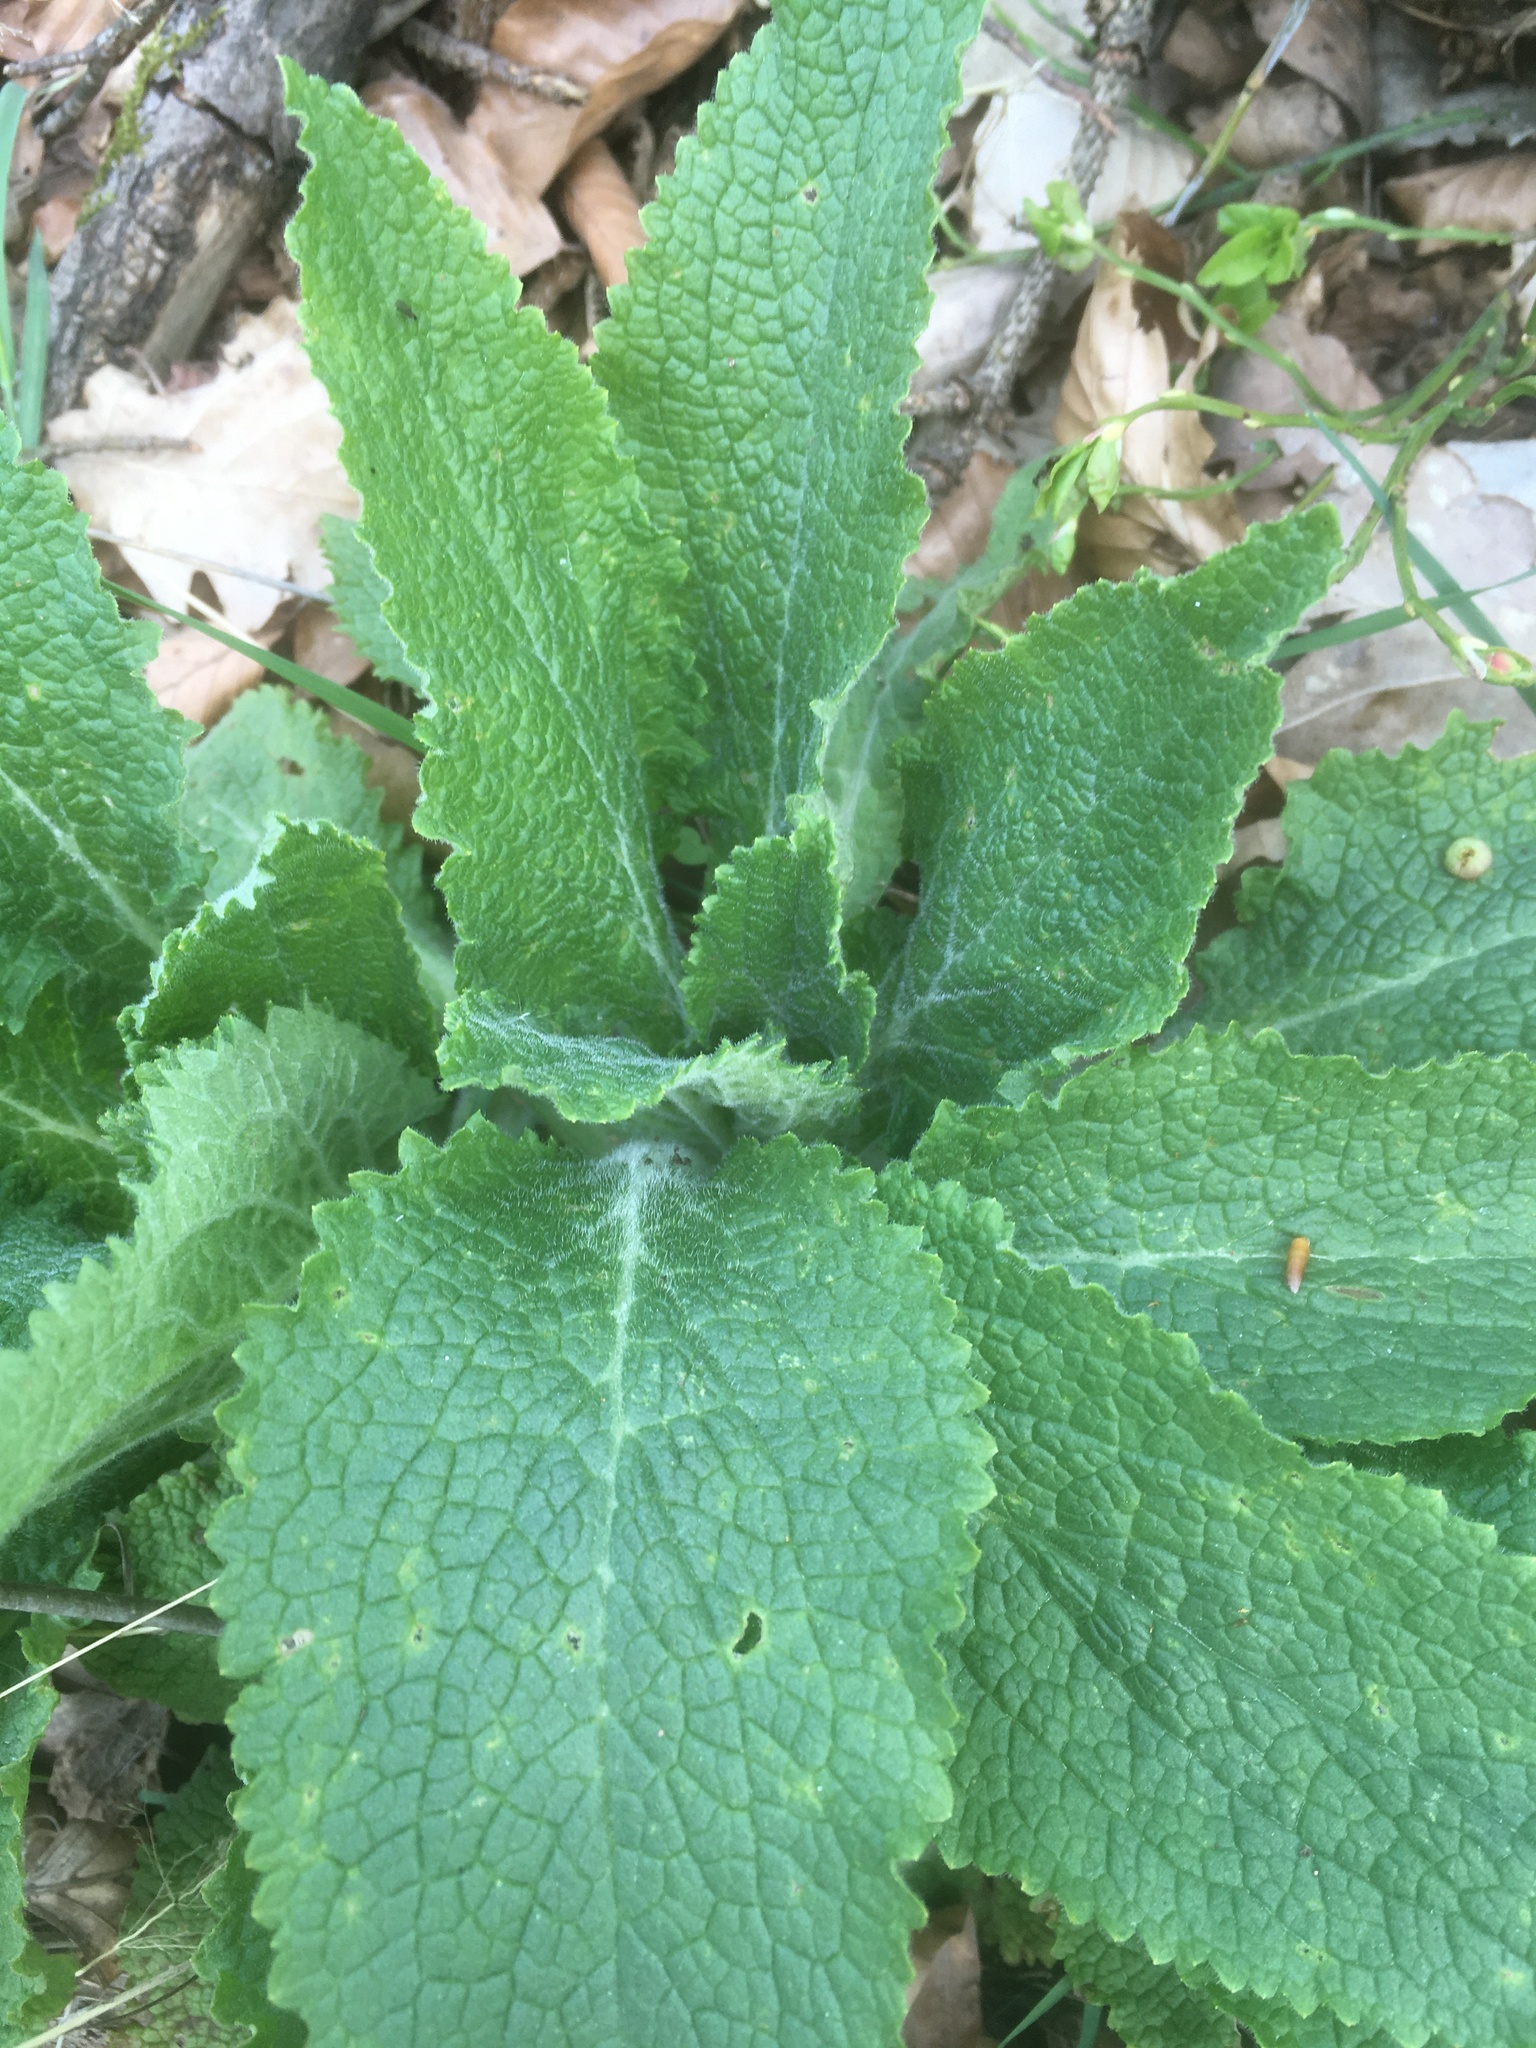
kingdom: Plantae
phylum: Tracheophyta
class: Magnoliopsida
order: Lamiales
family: Plantaginaceae
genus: Digitalis
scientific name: Digitalis purpurea
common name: Foxglove
